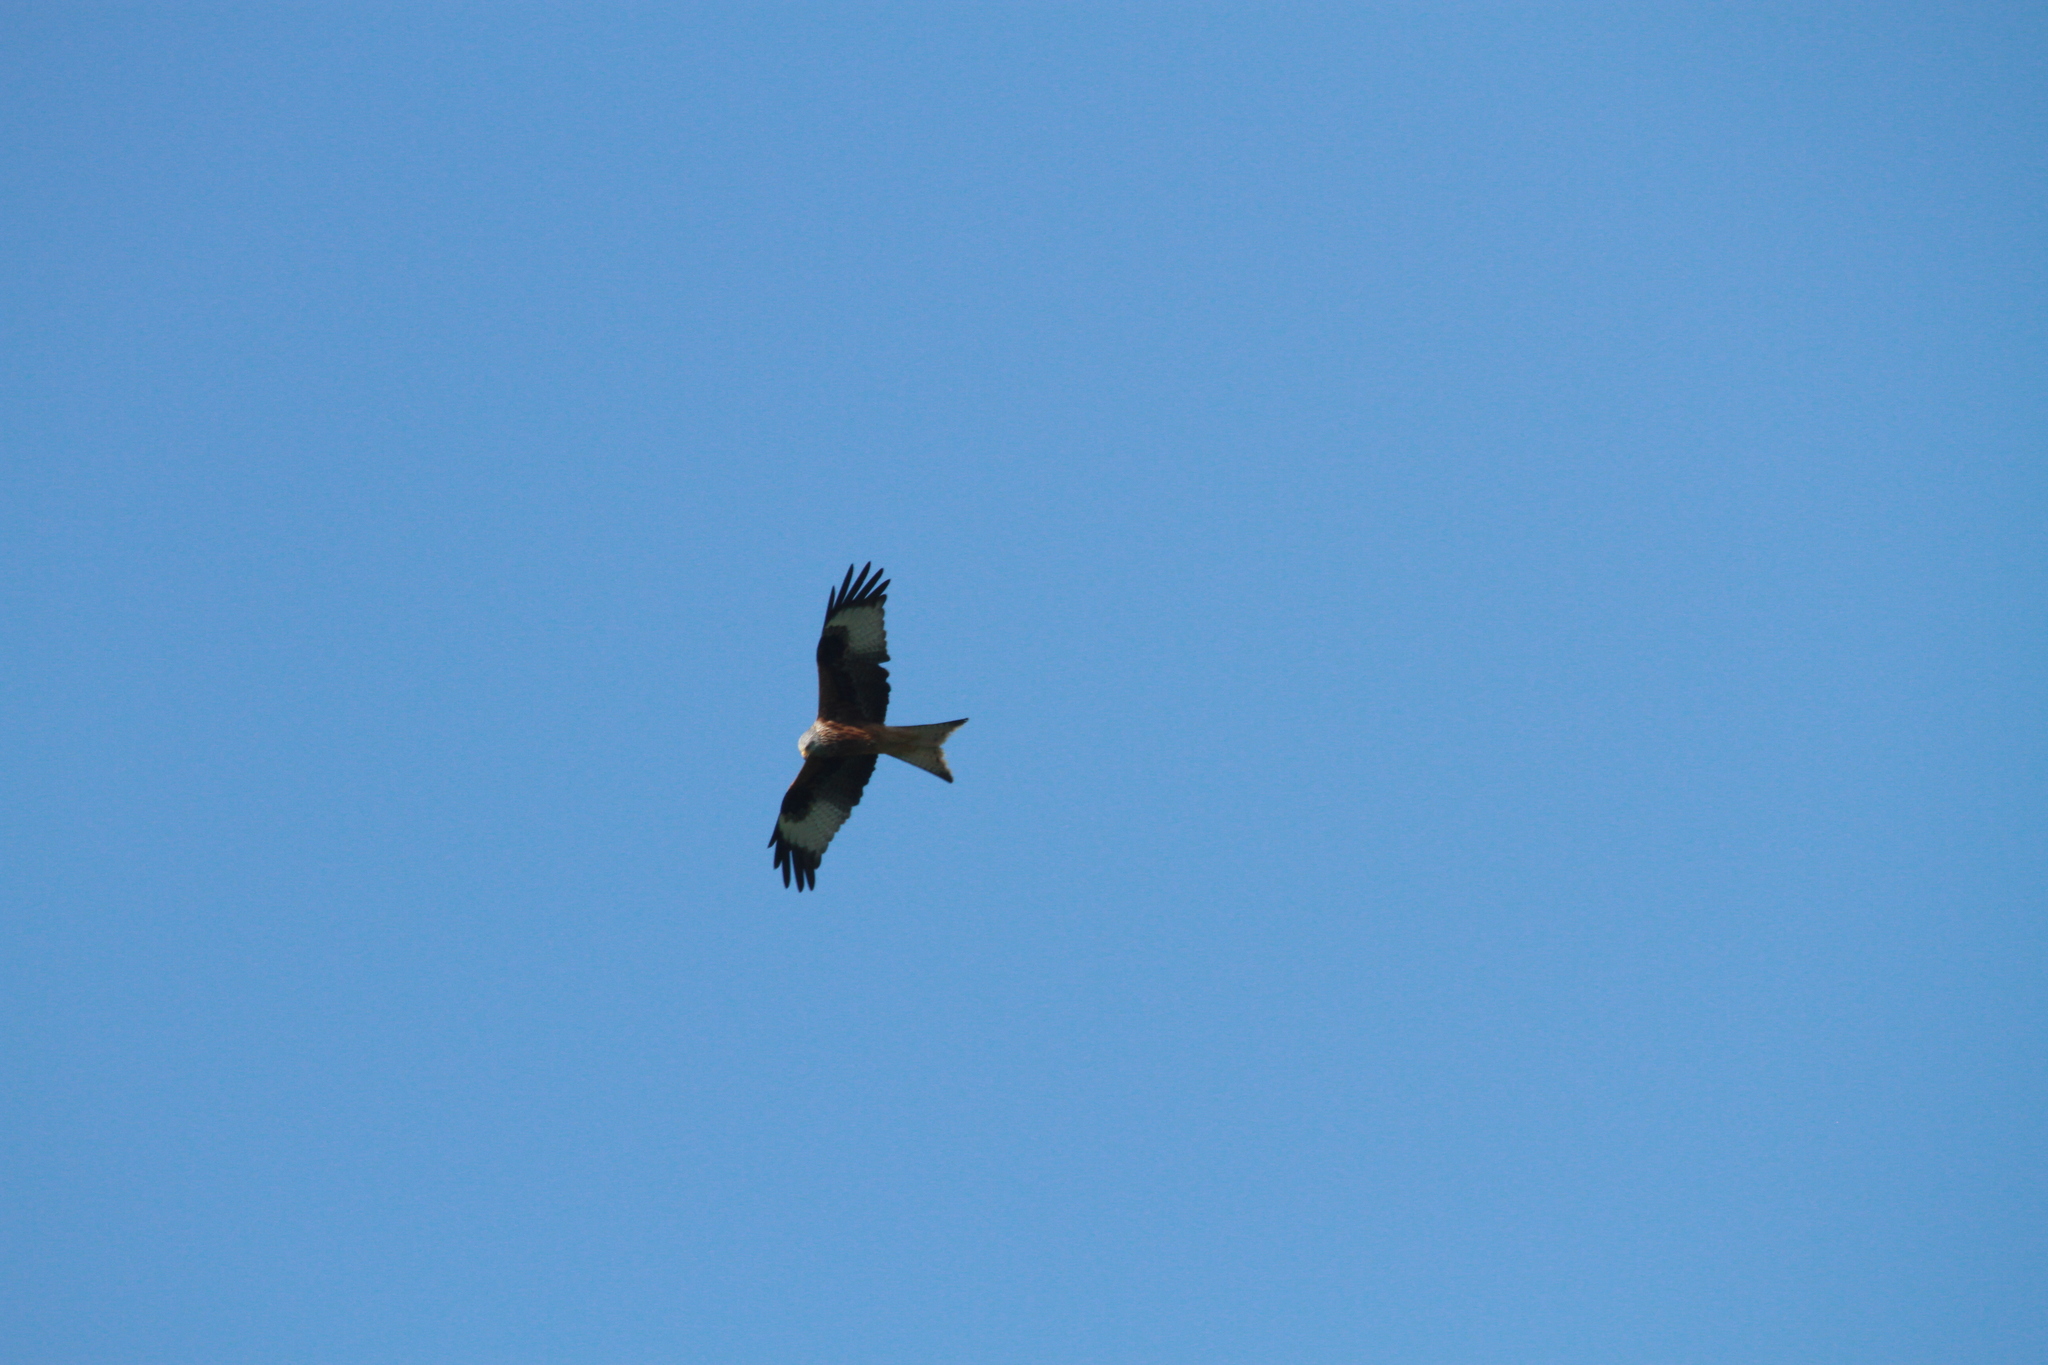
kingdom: Animalia
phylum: Chordata
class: Aves
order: Accipitriformes
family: Accipitridae
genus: Milvus
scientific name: Milvus milvus
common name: Red kite
